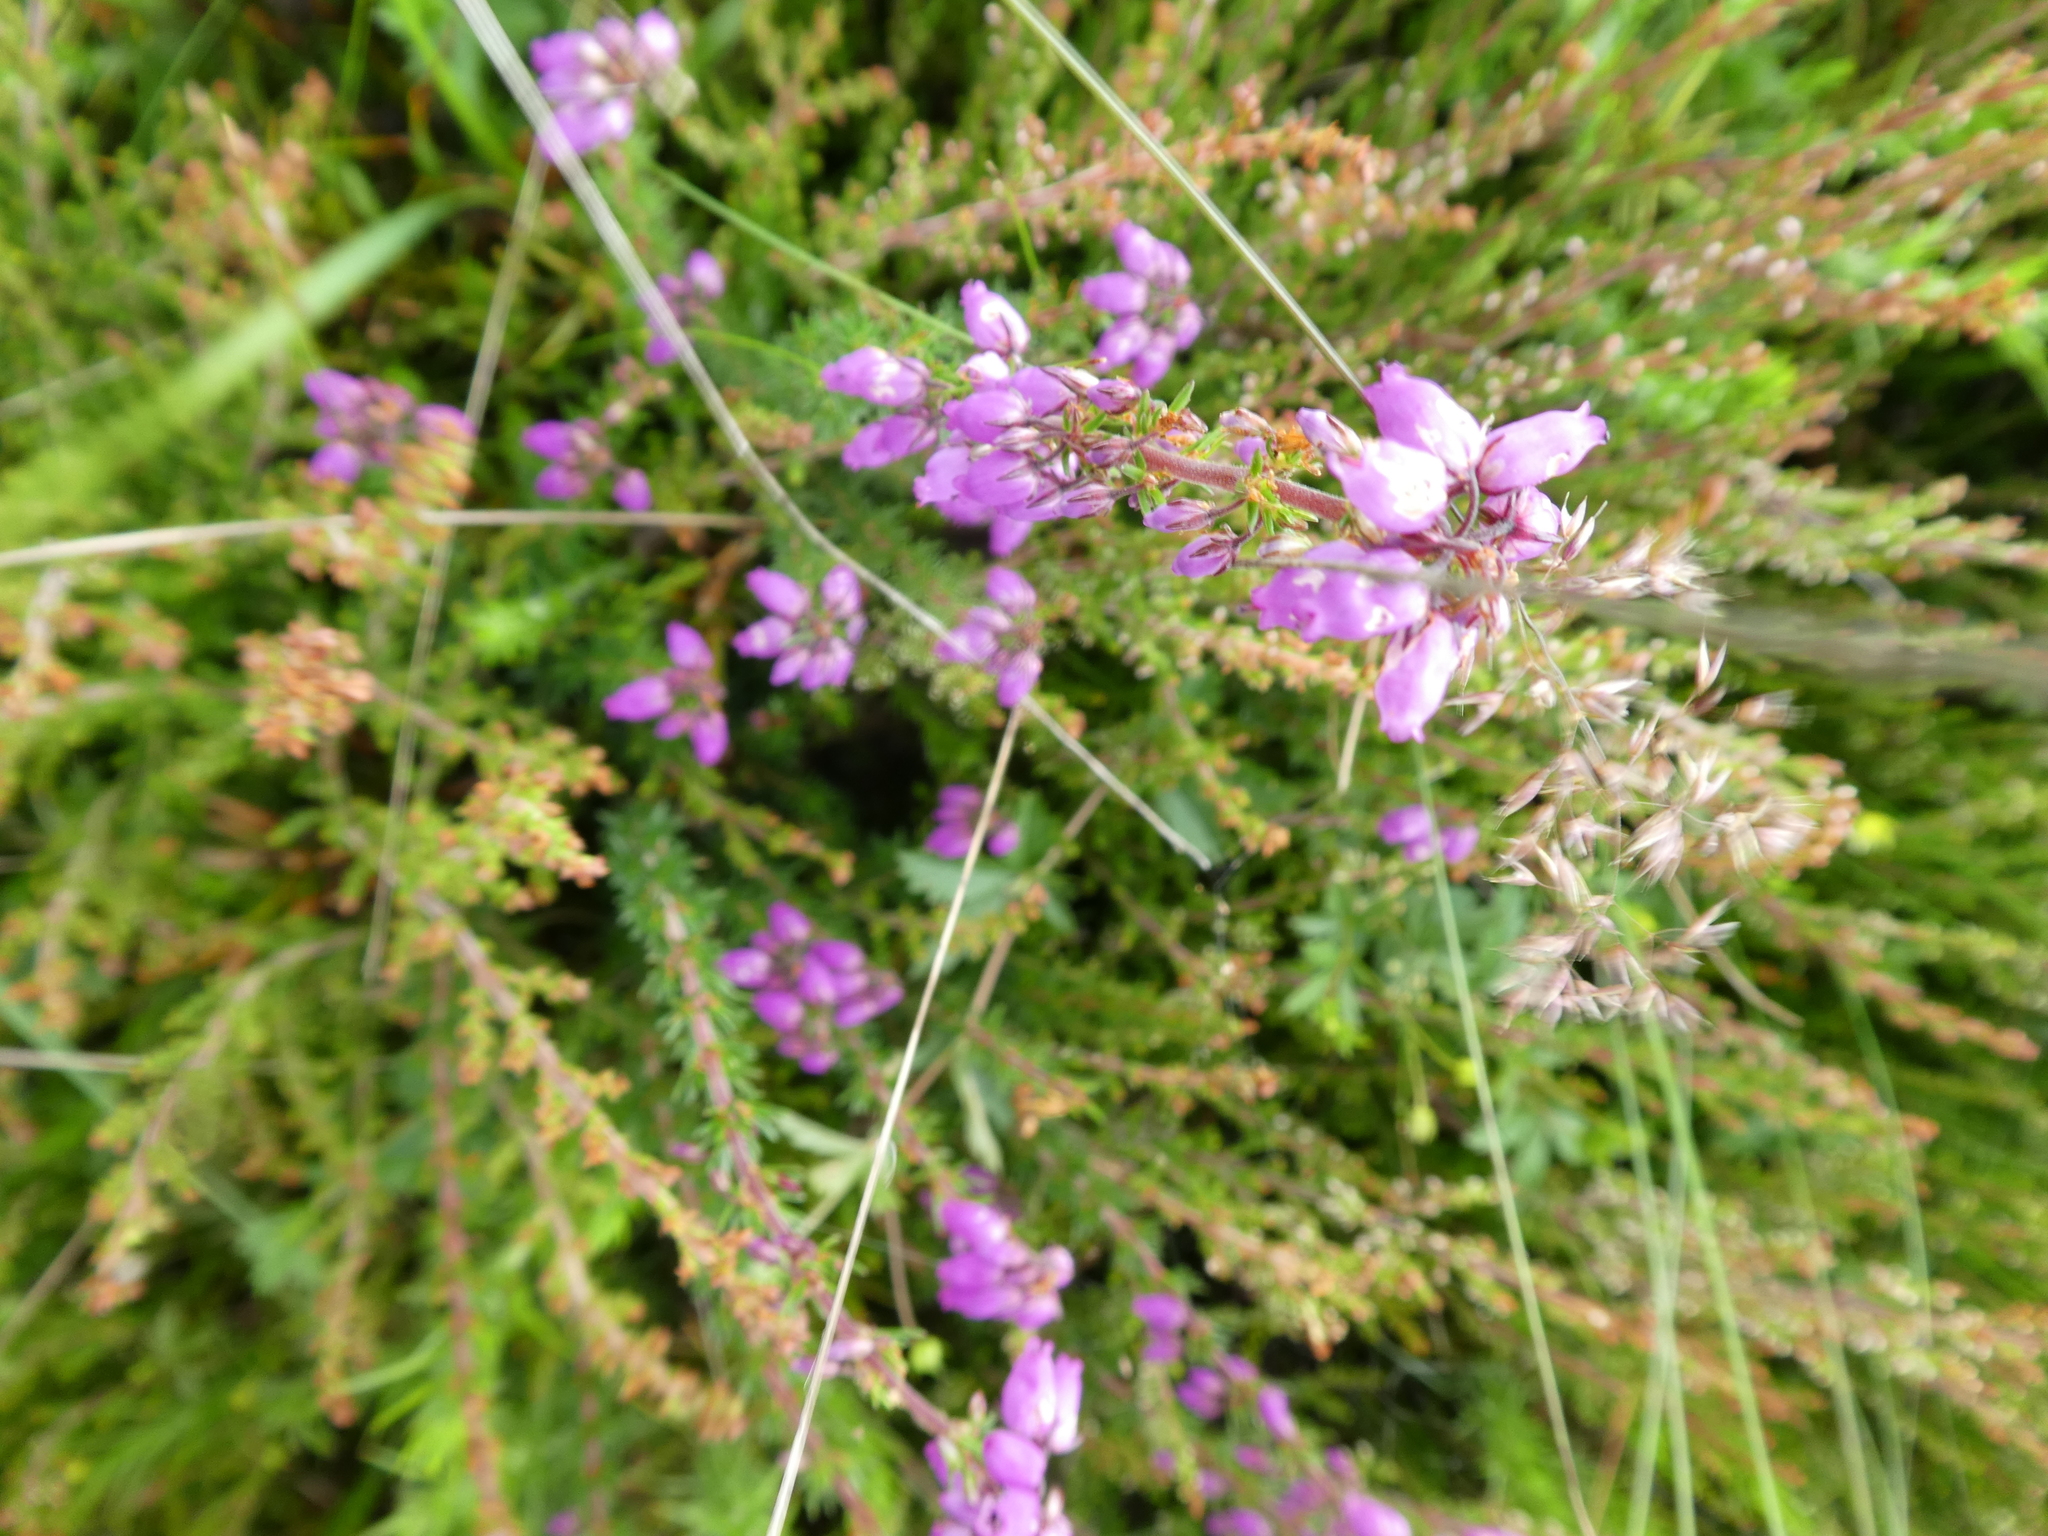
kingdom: Plantae
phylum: Tracheophyta
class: Magnoliopsida
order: Ericales
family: Ericaceae
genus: Erica
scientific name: Erica cinerea
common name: Bell heather
